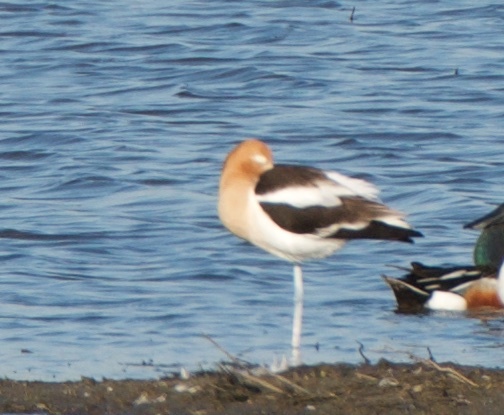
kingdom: Animalia
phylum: Chordata
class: Aves
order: Charadriiformes
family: Recurvirostridae
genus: Recurvirostra
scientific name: Recurvirostra americana
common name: American avocet
